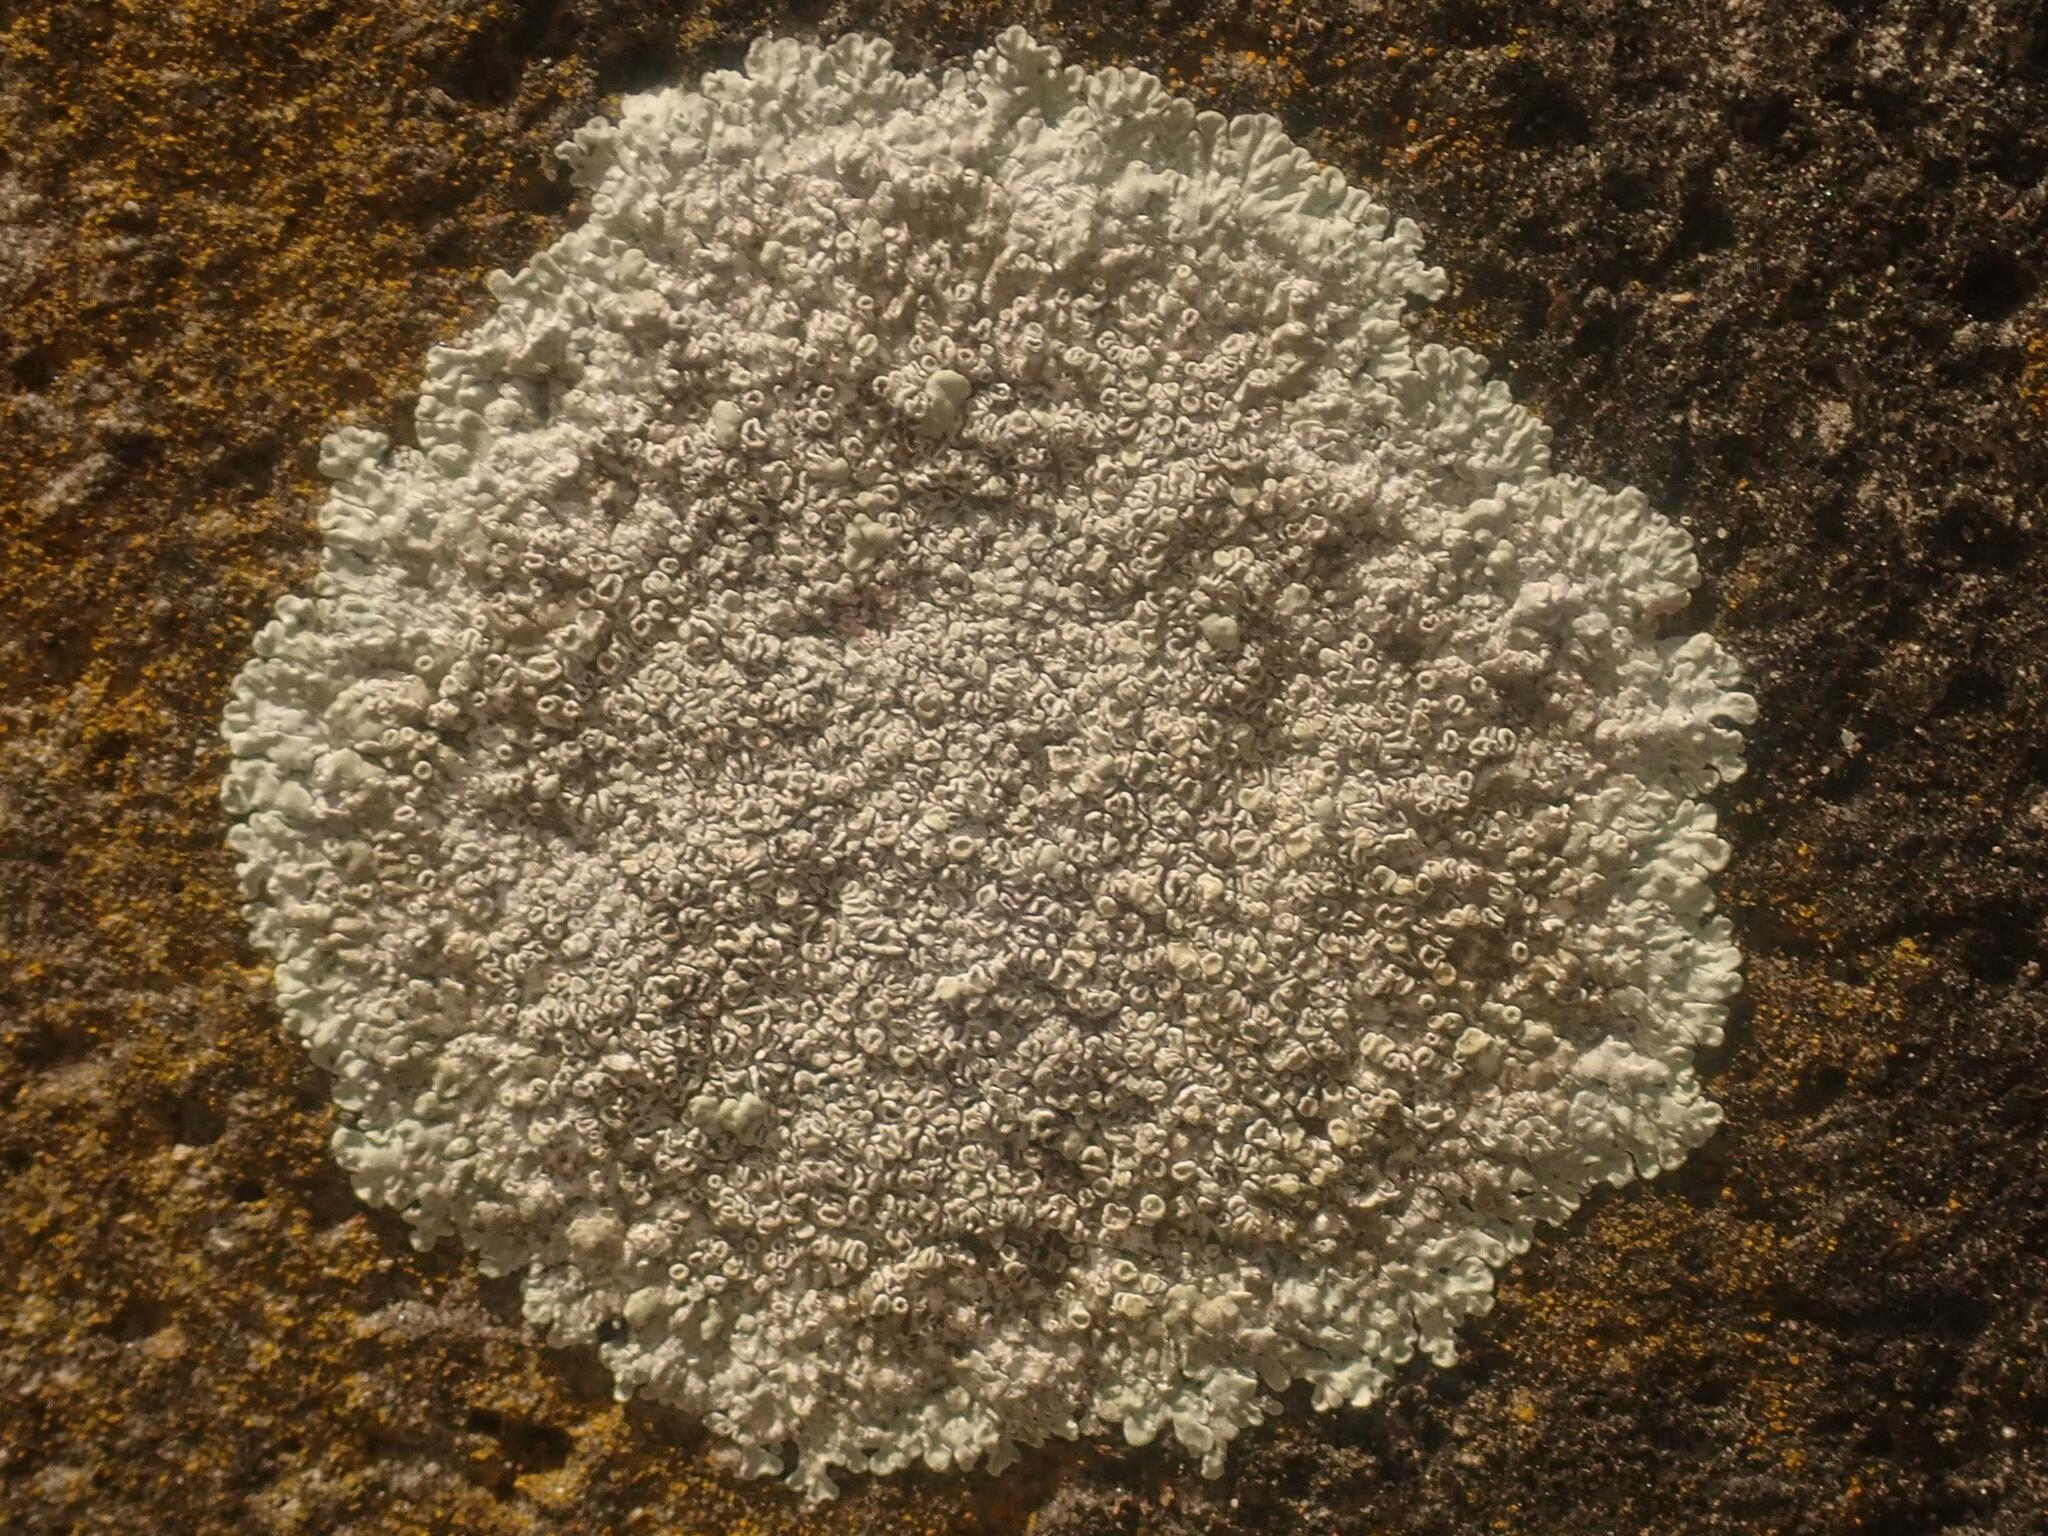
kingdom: Fungi
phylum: Ascomycota
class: Lecanoromycetes
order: Lecanorales
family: Lecanoraceae
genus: Protoparmeliopsis
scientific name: Protoparmeliopsis muralis
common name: Stonewall rim lichen
